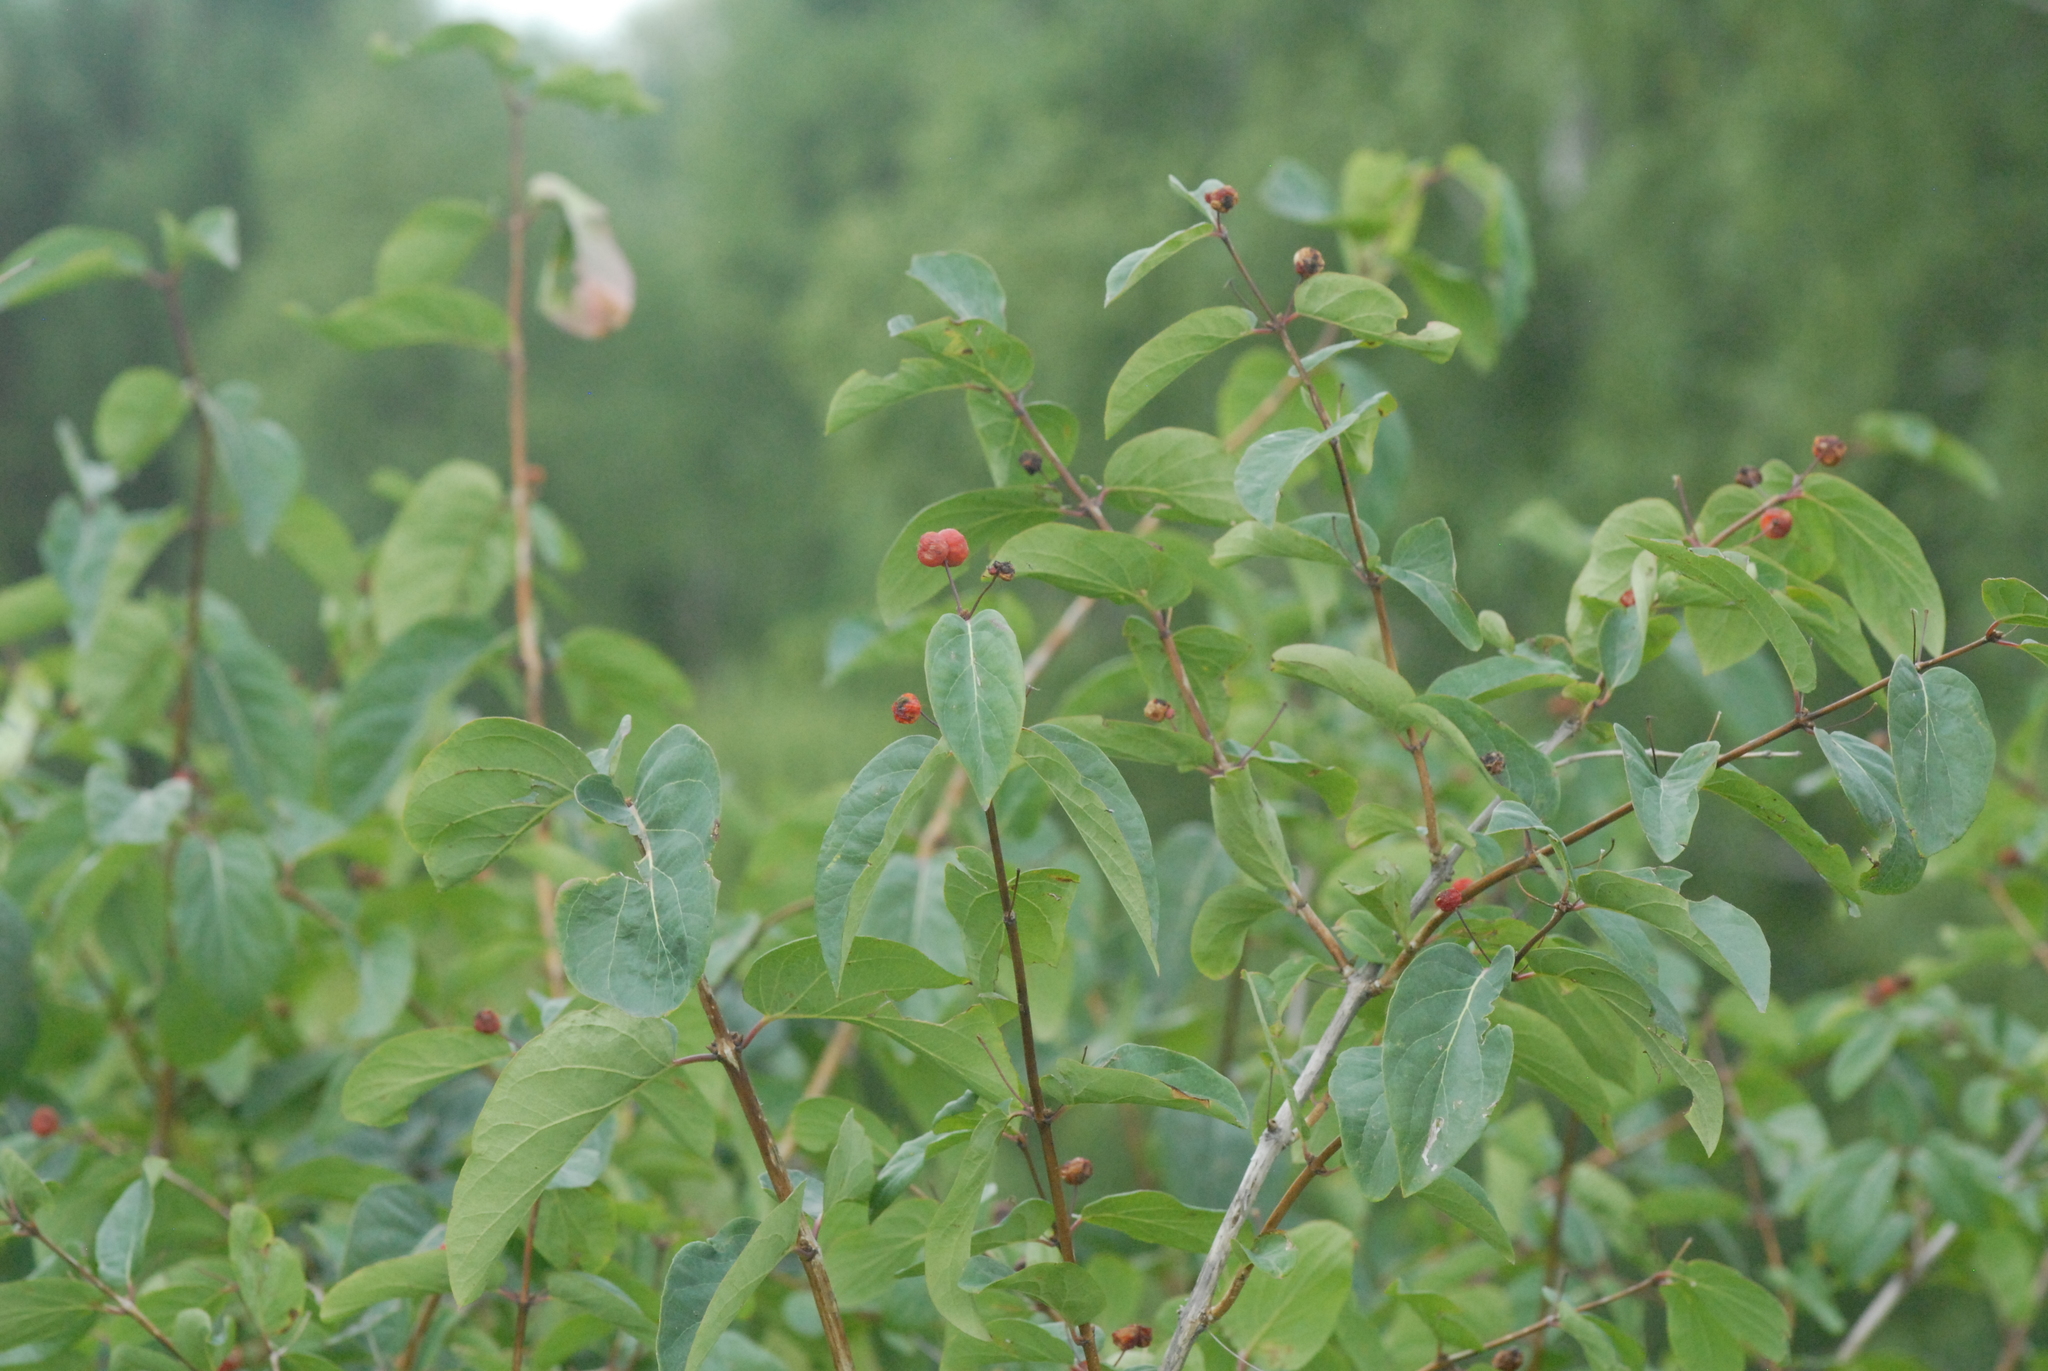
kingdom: Plantae
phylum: Tracheophyta
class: Magnoliopsida
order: Dipsacales
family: Caprifoliaceae
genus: Lonicera
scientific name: Lonicera tatarica
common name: Tatarian honeysuckle
